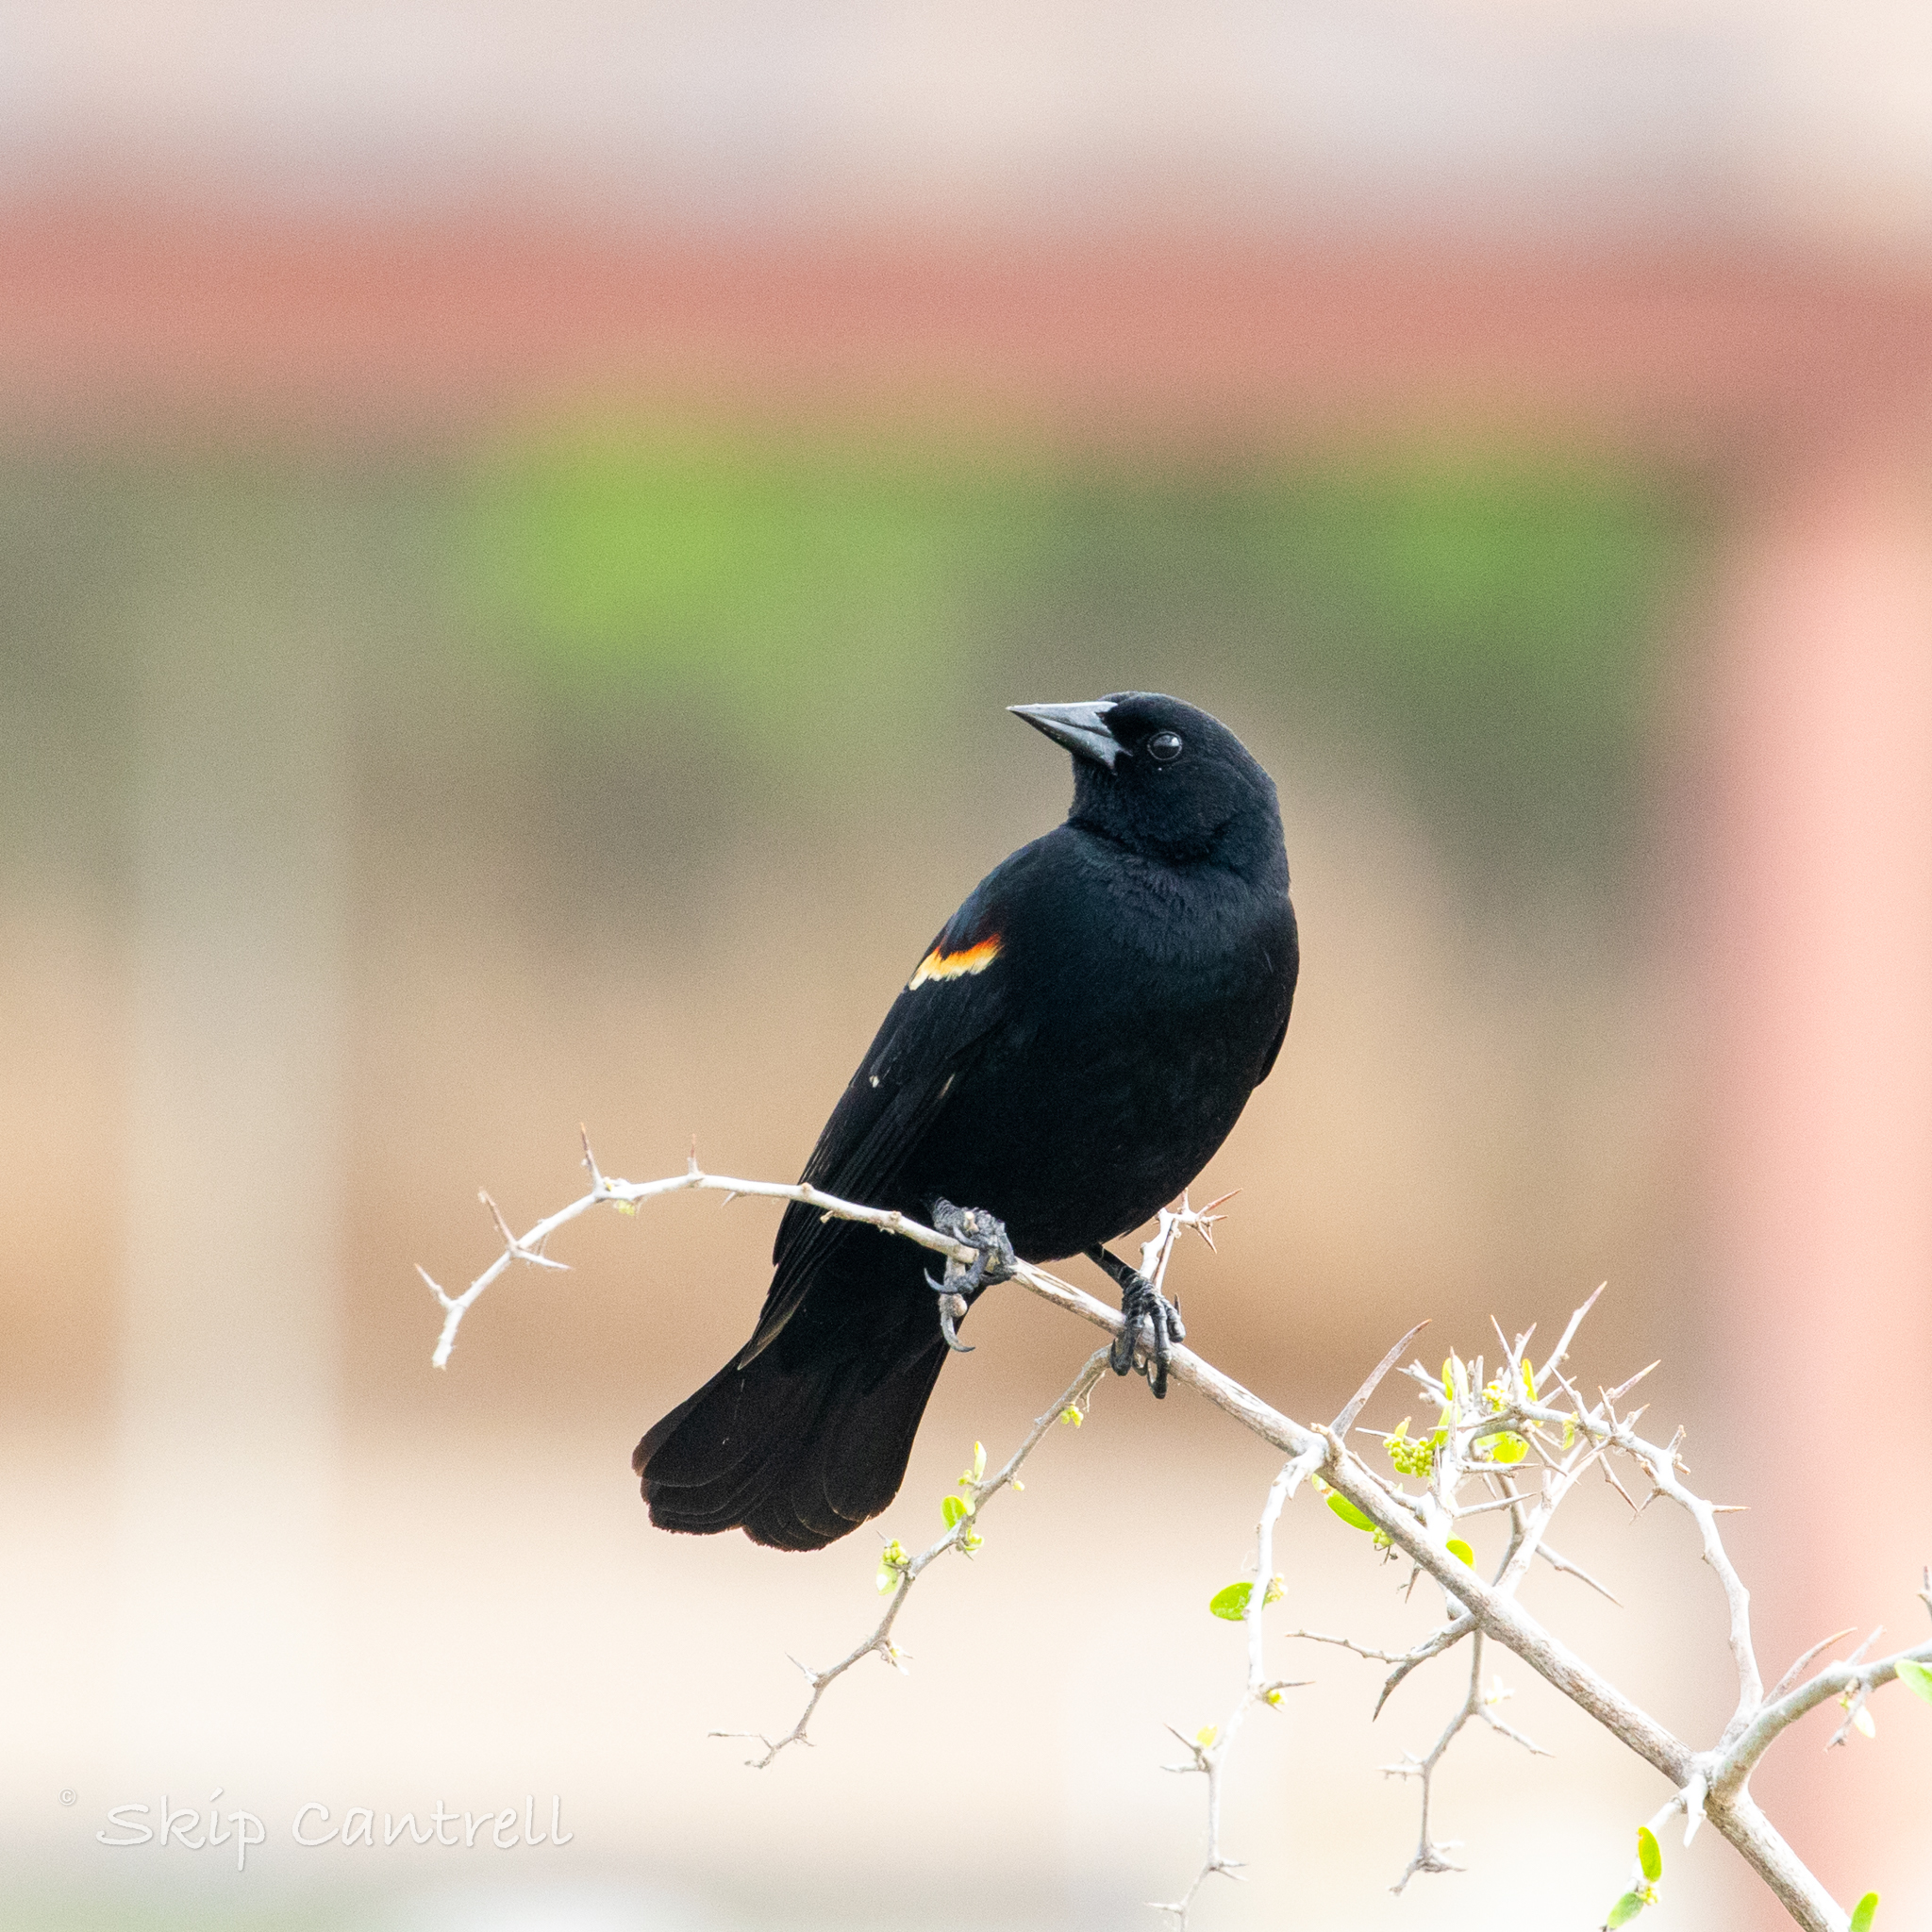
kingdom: Animalia
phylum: Chordata
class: Aves
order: Passeriformes
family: Icteridae
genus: Agelaius
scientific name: Agelaius phoeniceus
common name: Red-winged blackbird
